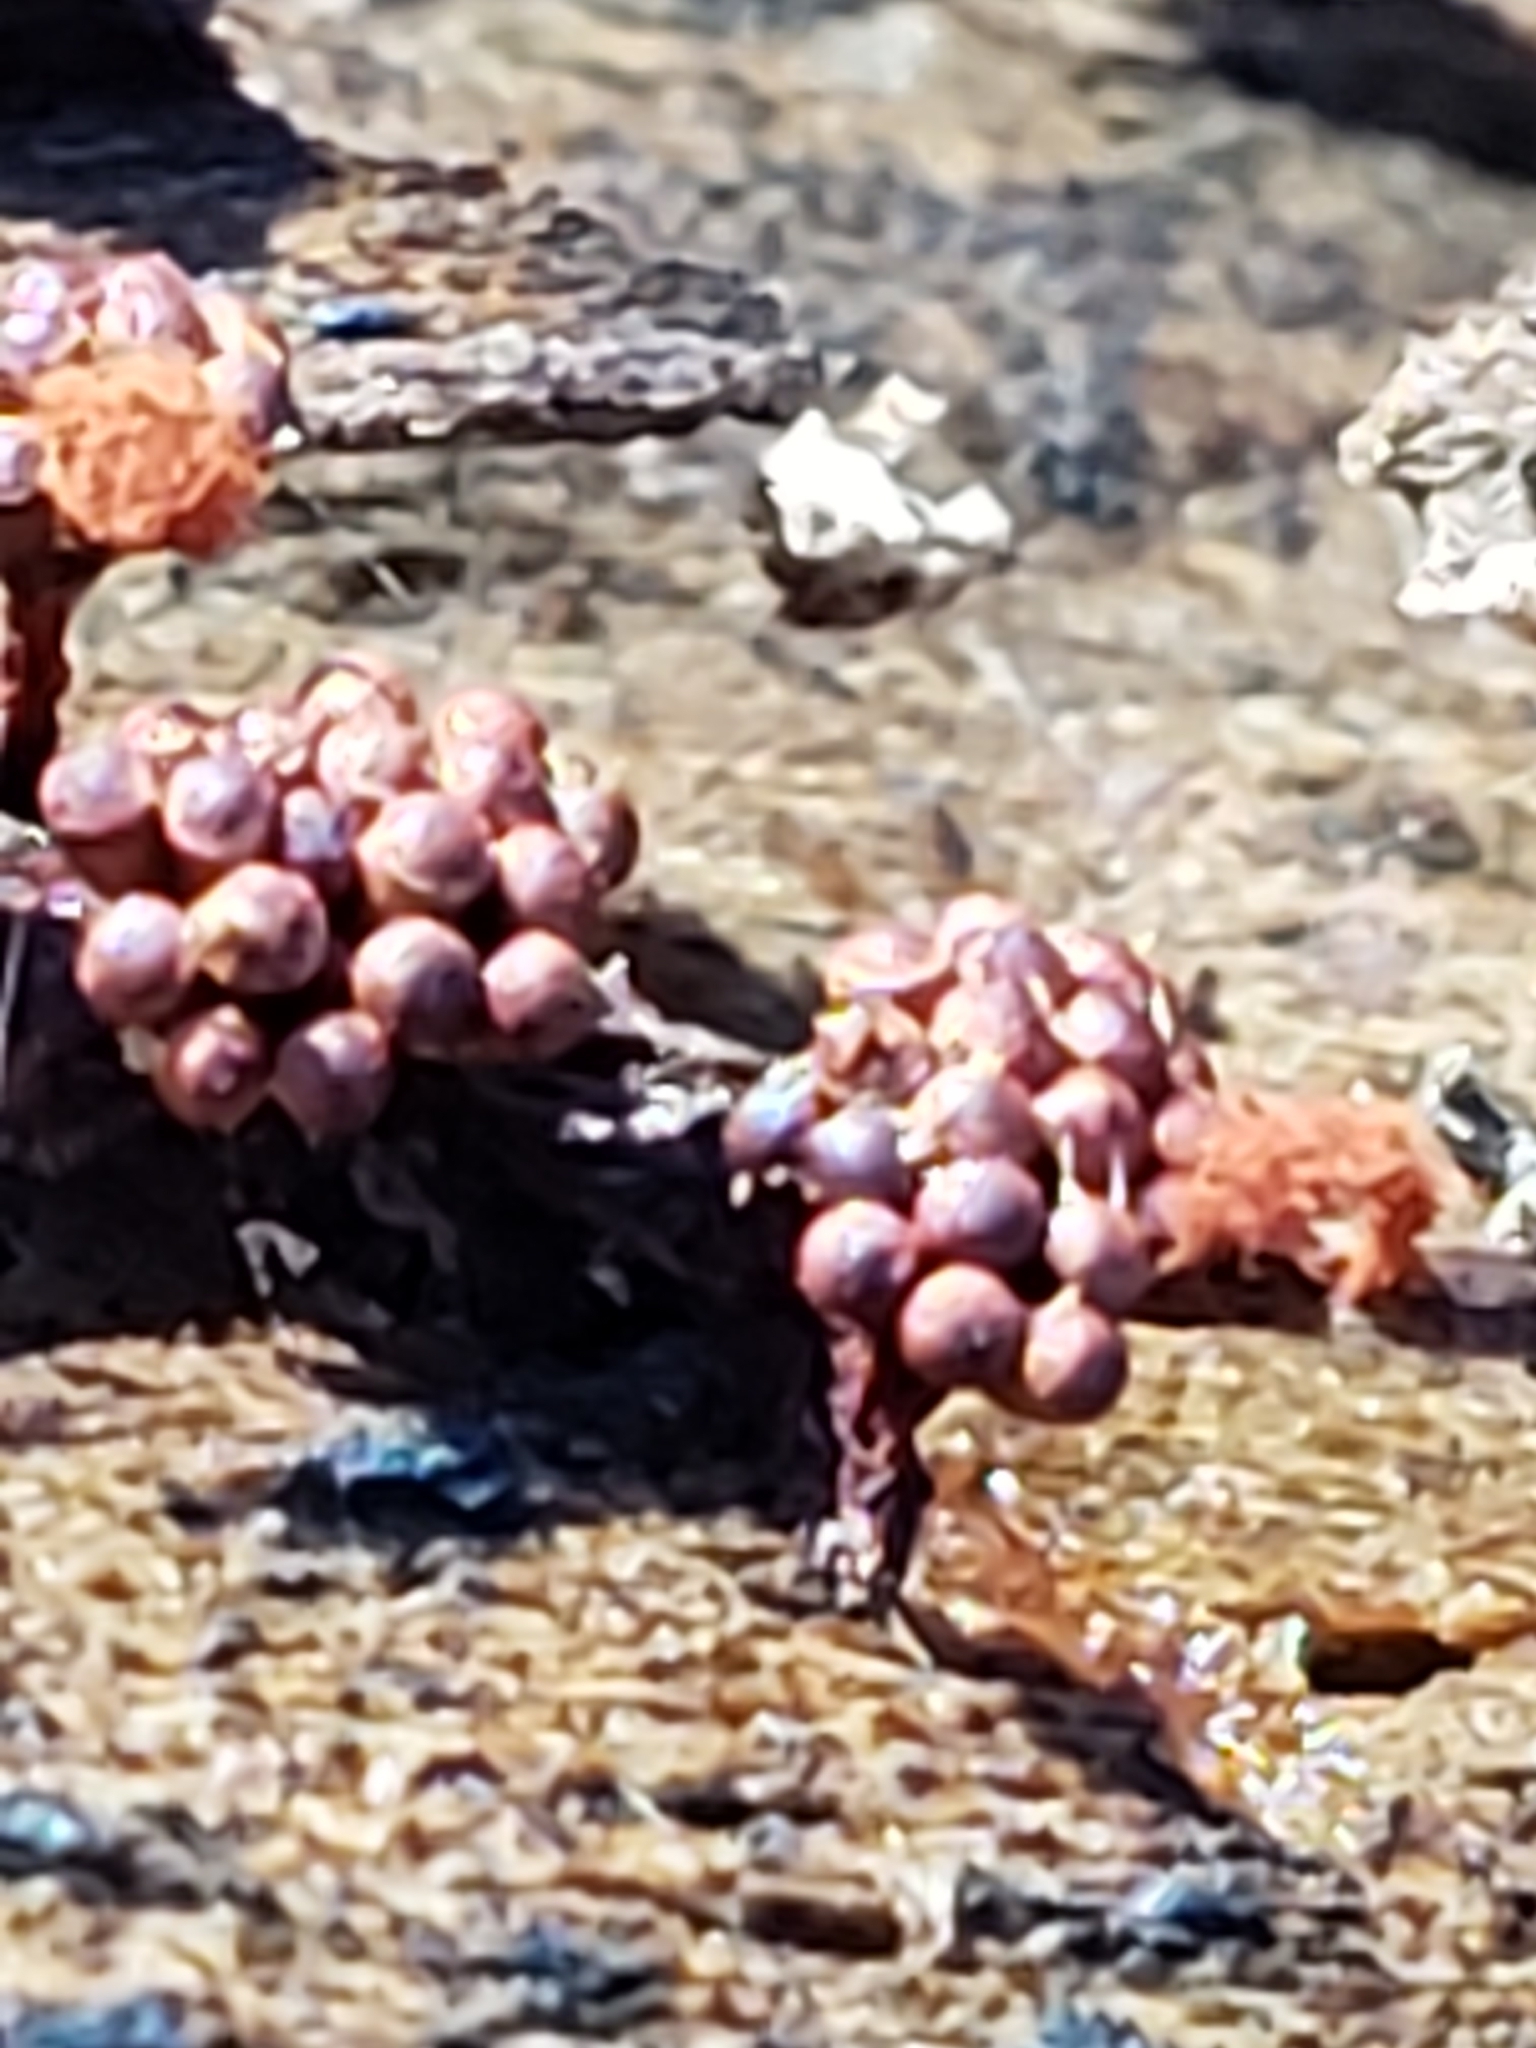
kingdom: Protozoa
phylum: Mycetozoa
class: Myxomycetes
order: Trichiales
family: Trichiaceae
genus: Metatrichia
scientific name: Metatrichia vesparia
